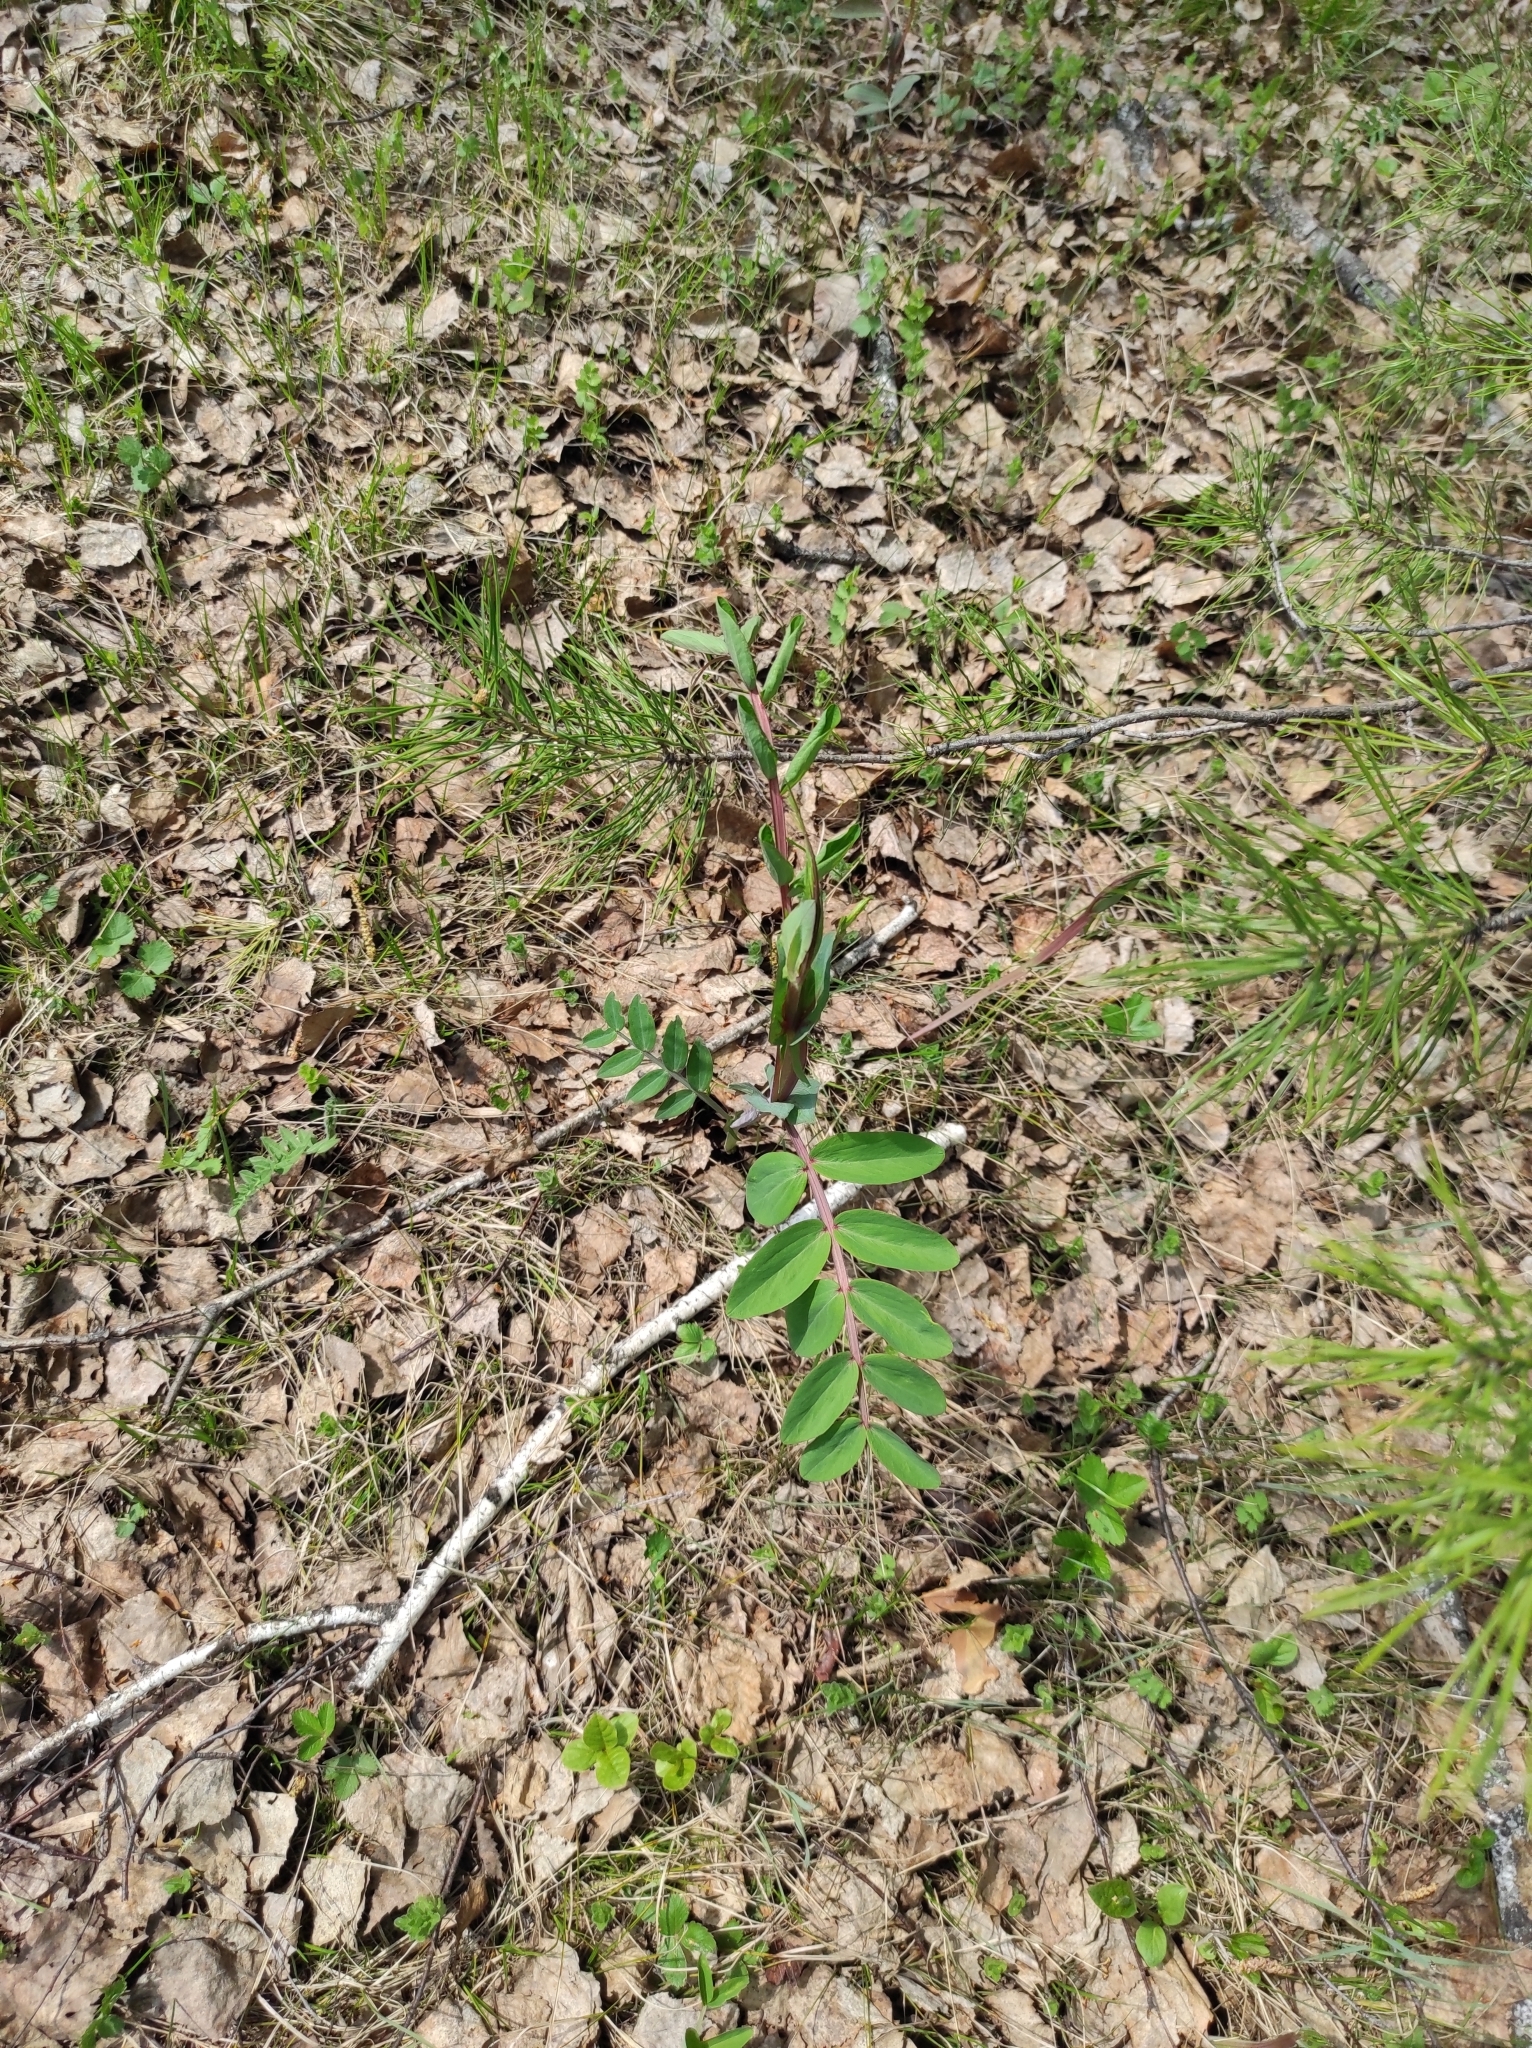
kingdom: Plantae
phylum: Tracheophyta
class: Magnoliopsida
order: Fabales
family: Fabaceae
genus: Lathyrus
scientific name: Lathyrus pisiformis
